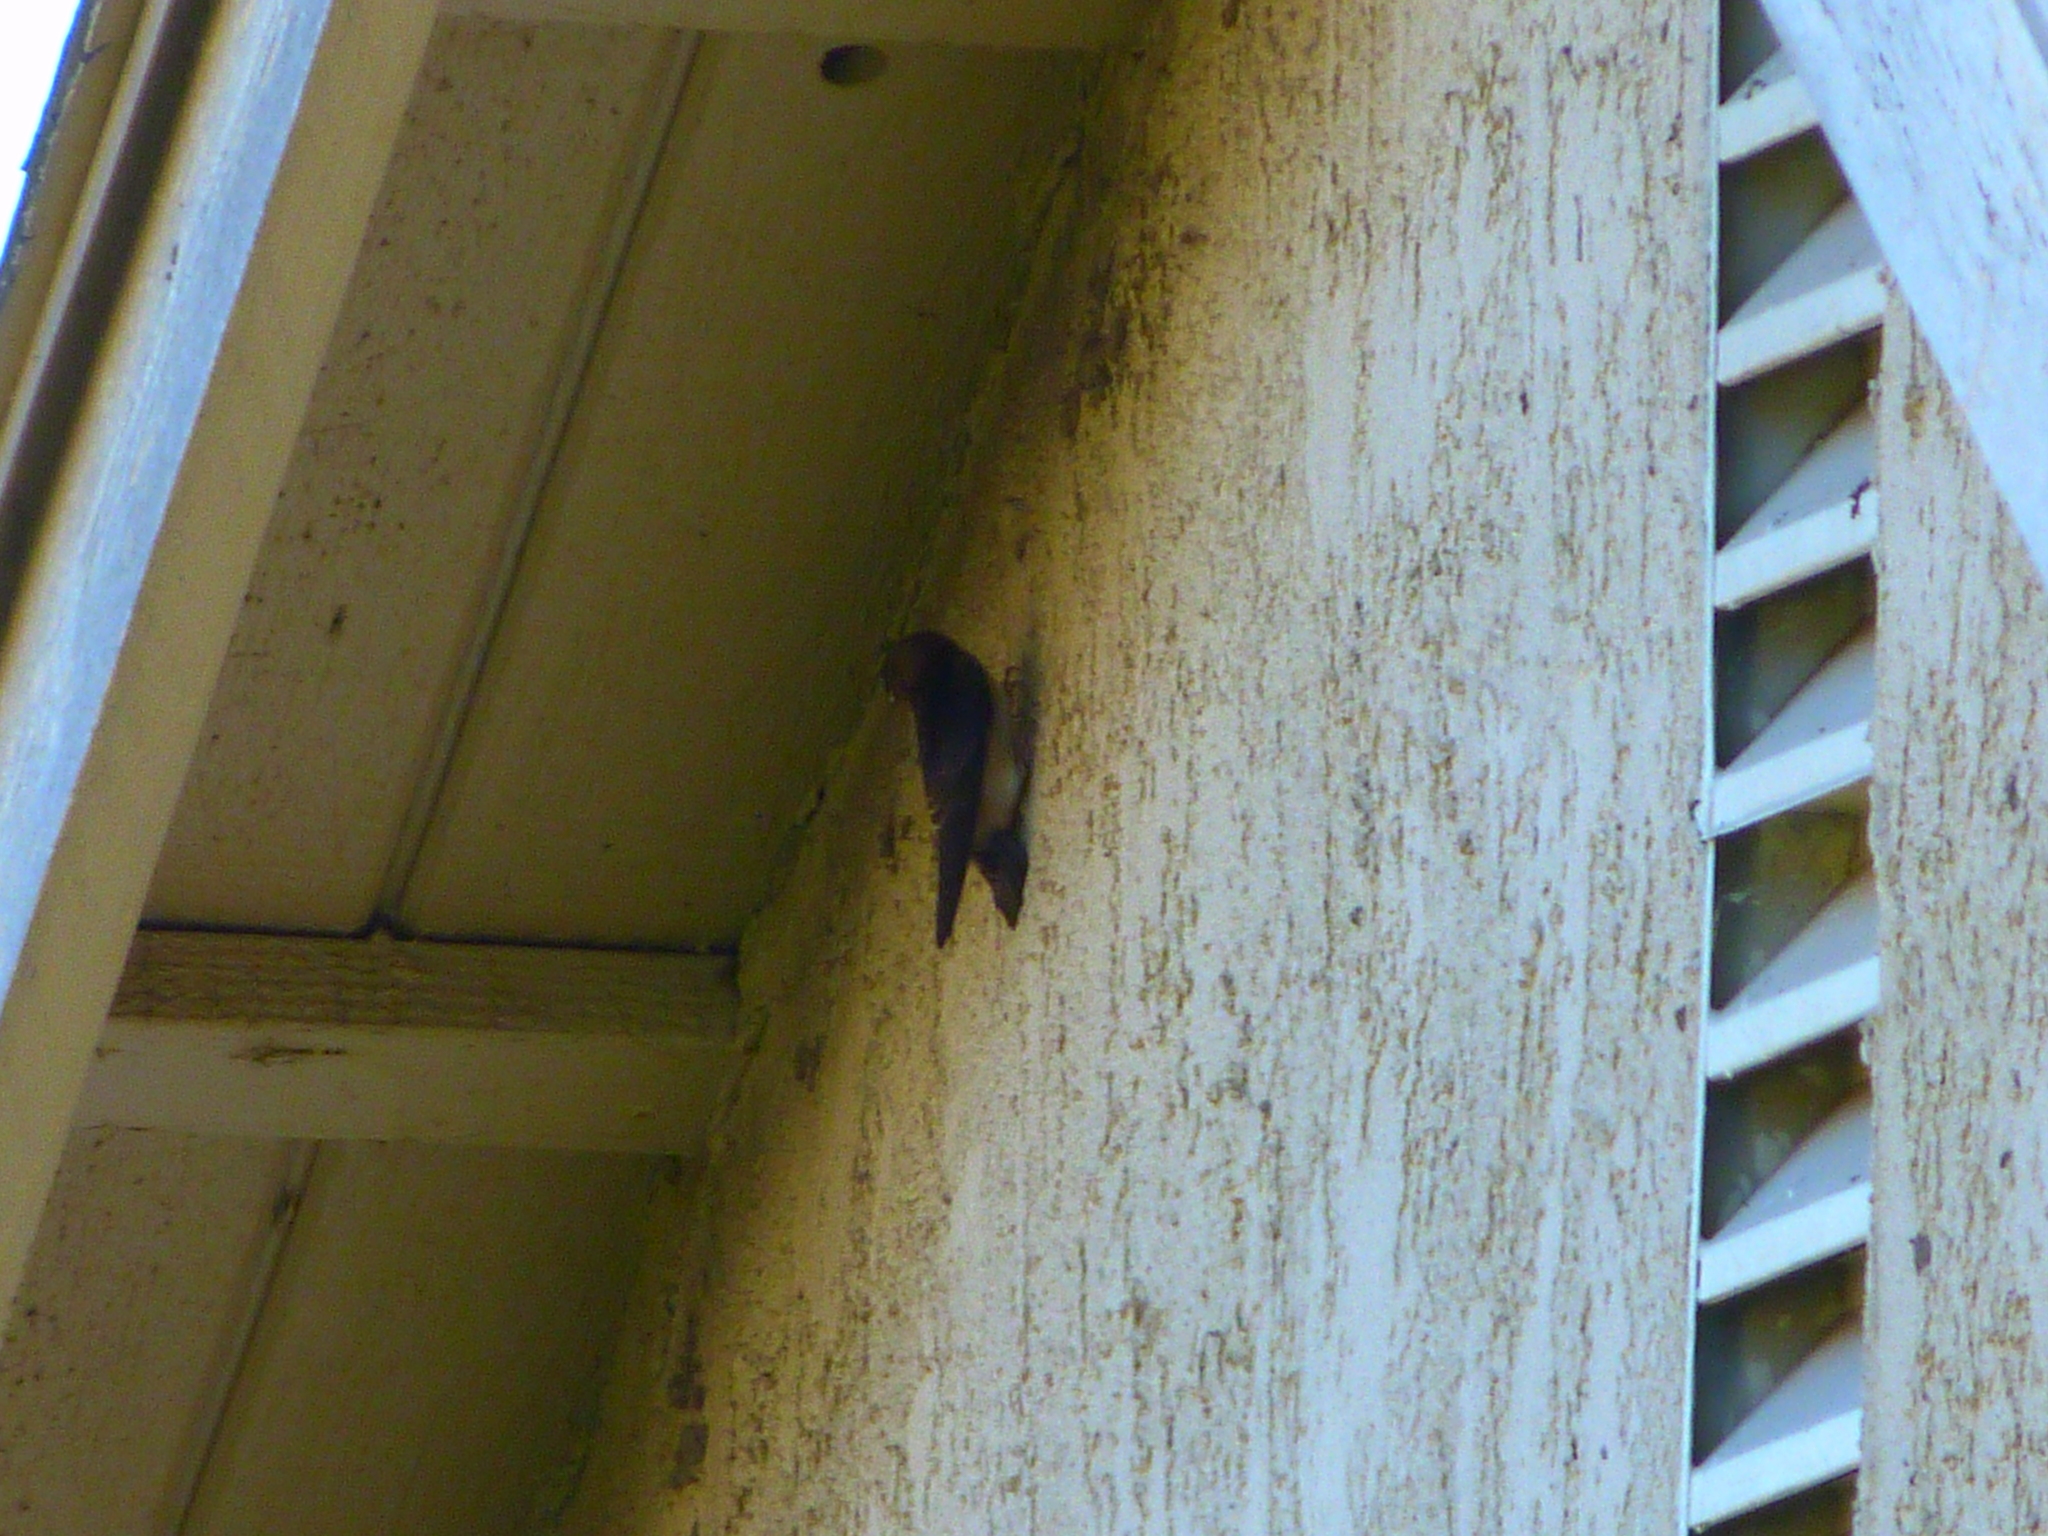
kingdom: Animalia
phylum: Chordata
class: Aves
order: Passeriformes
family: Hirundinidae
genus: Petrochelidon
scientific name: Petrochelidon pyrrhonota
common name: American cliff swallow
